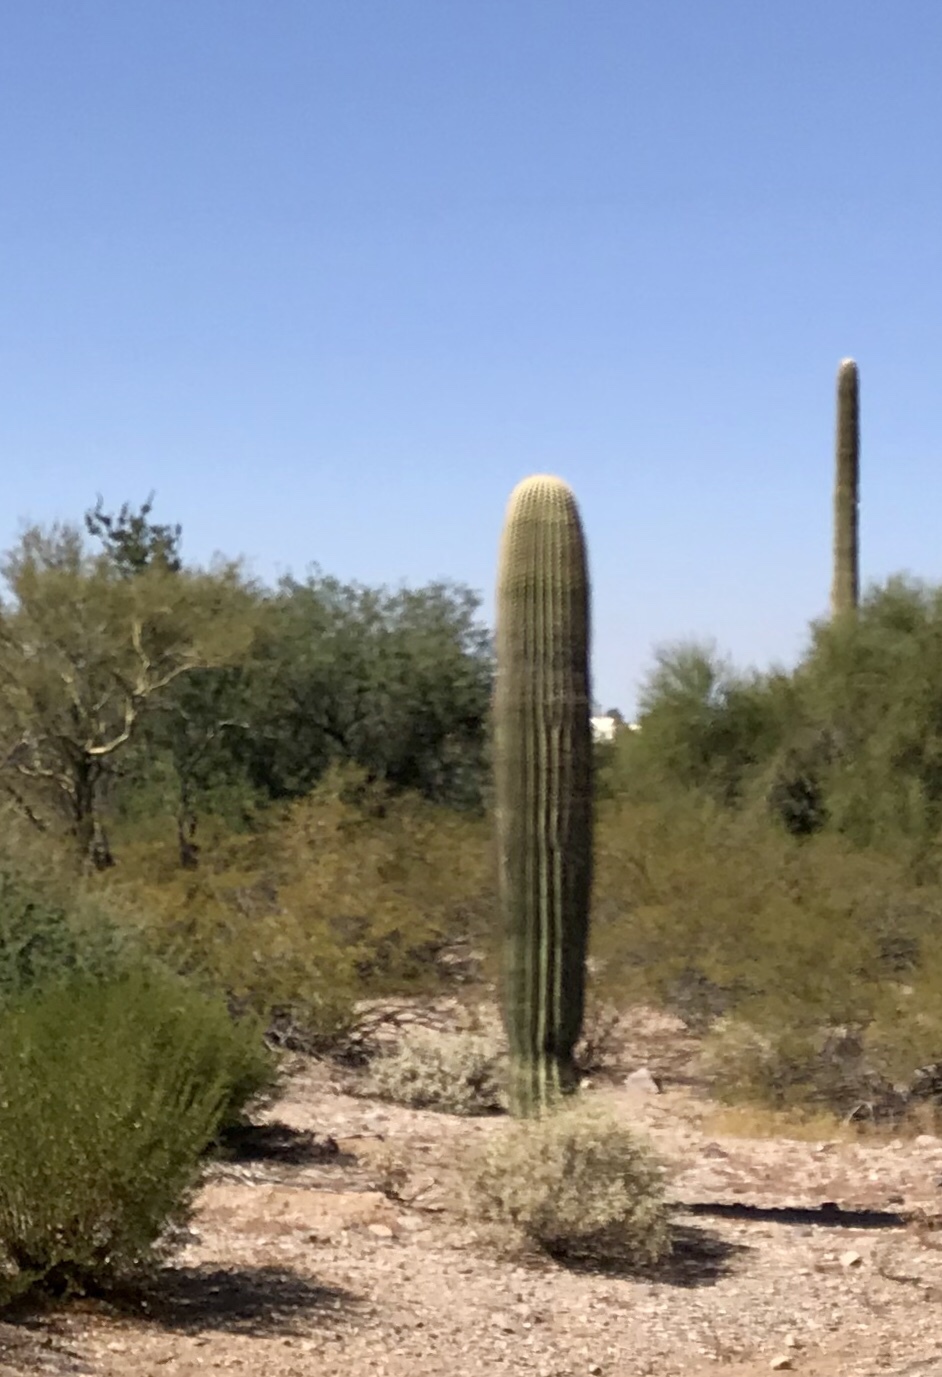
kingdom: Plantae
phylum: Tracheophyta
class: Magnoliopsida
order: Caryophyllales
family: Cactaceae
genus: Carnegiea
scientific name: Carnegiea gigantea
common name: Saguaro
